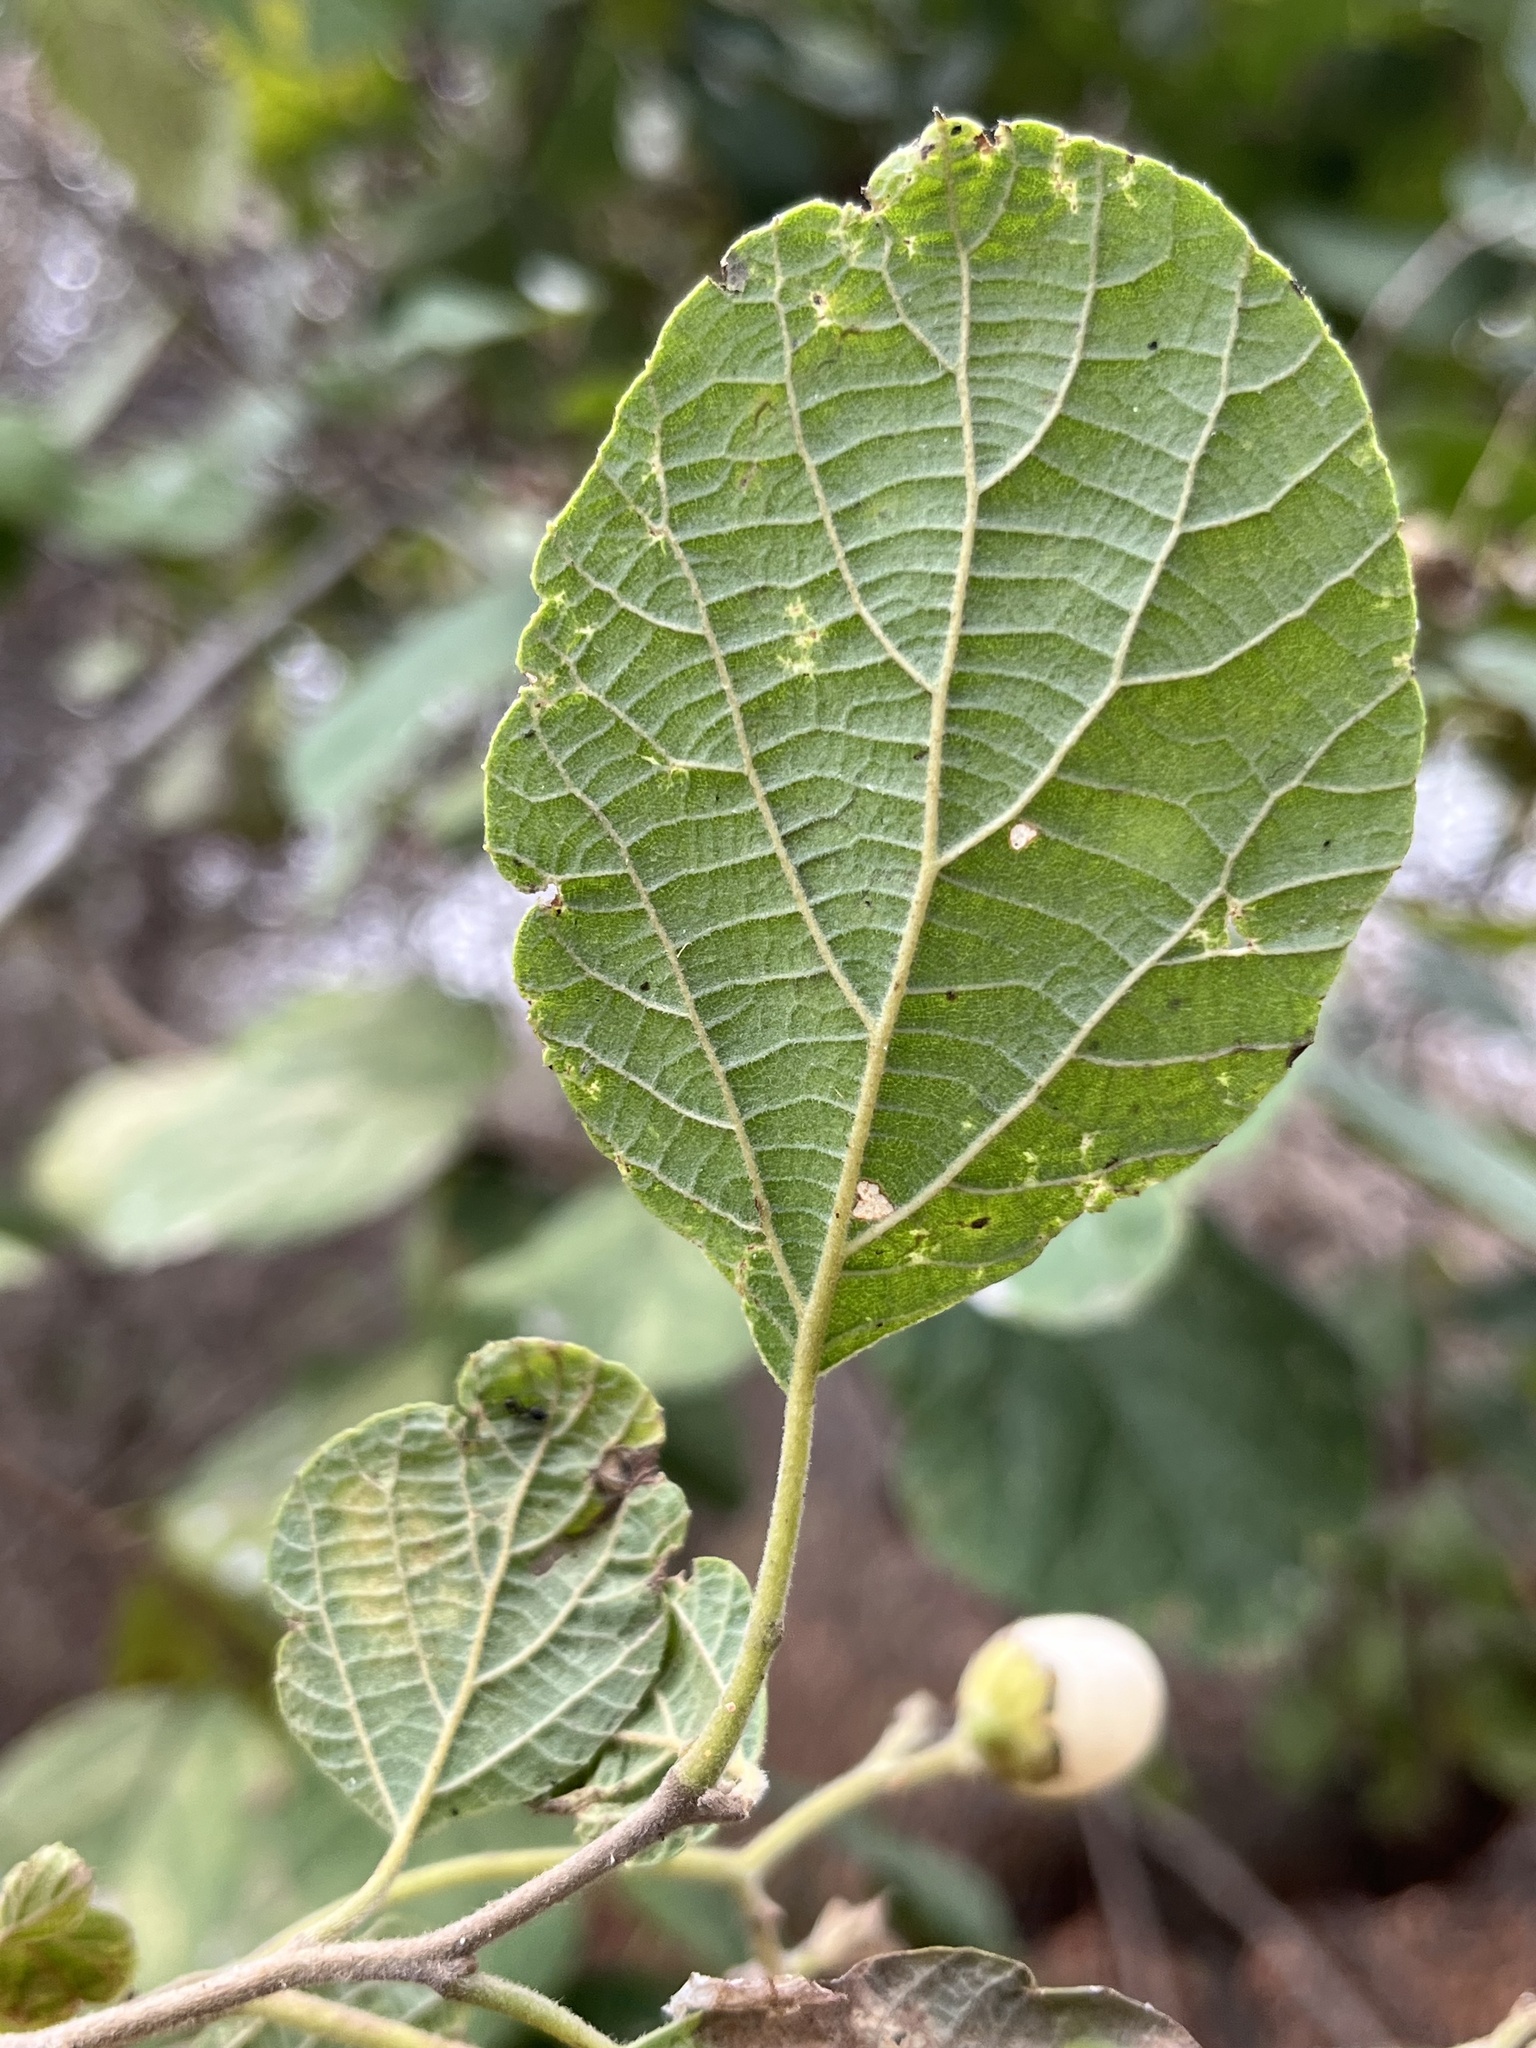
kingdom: Plantae
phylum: Tracheophyta
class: Magnoliopsida
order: Boraginales
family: Cordiaceae
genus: Cordia
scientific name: Cordia lutea
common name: Yellow geiger
